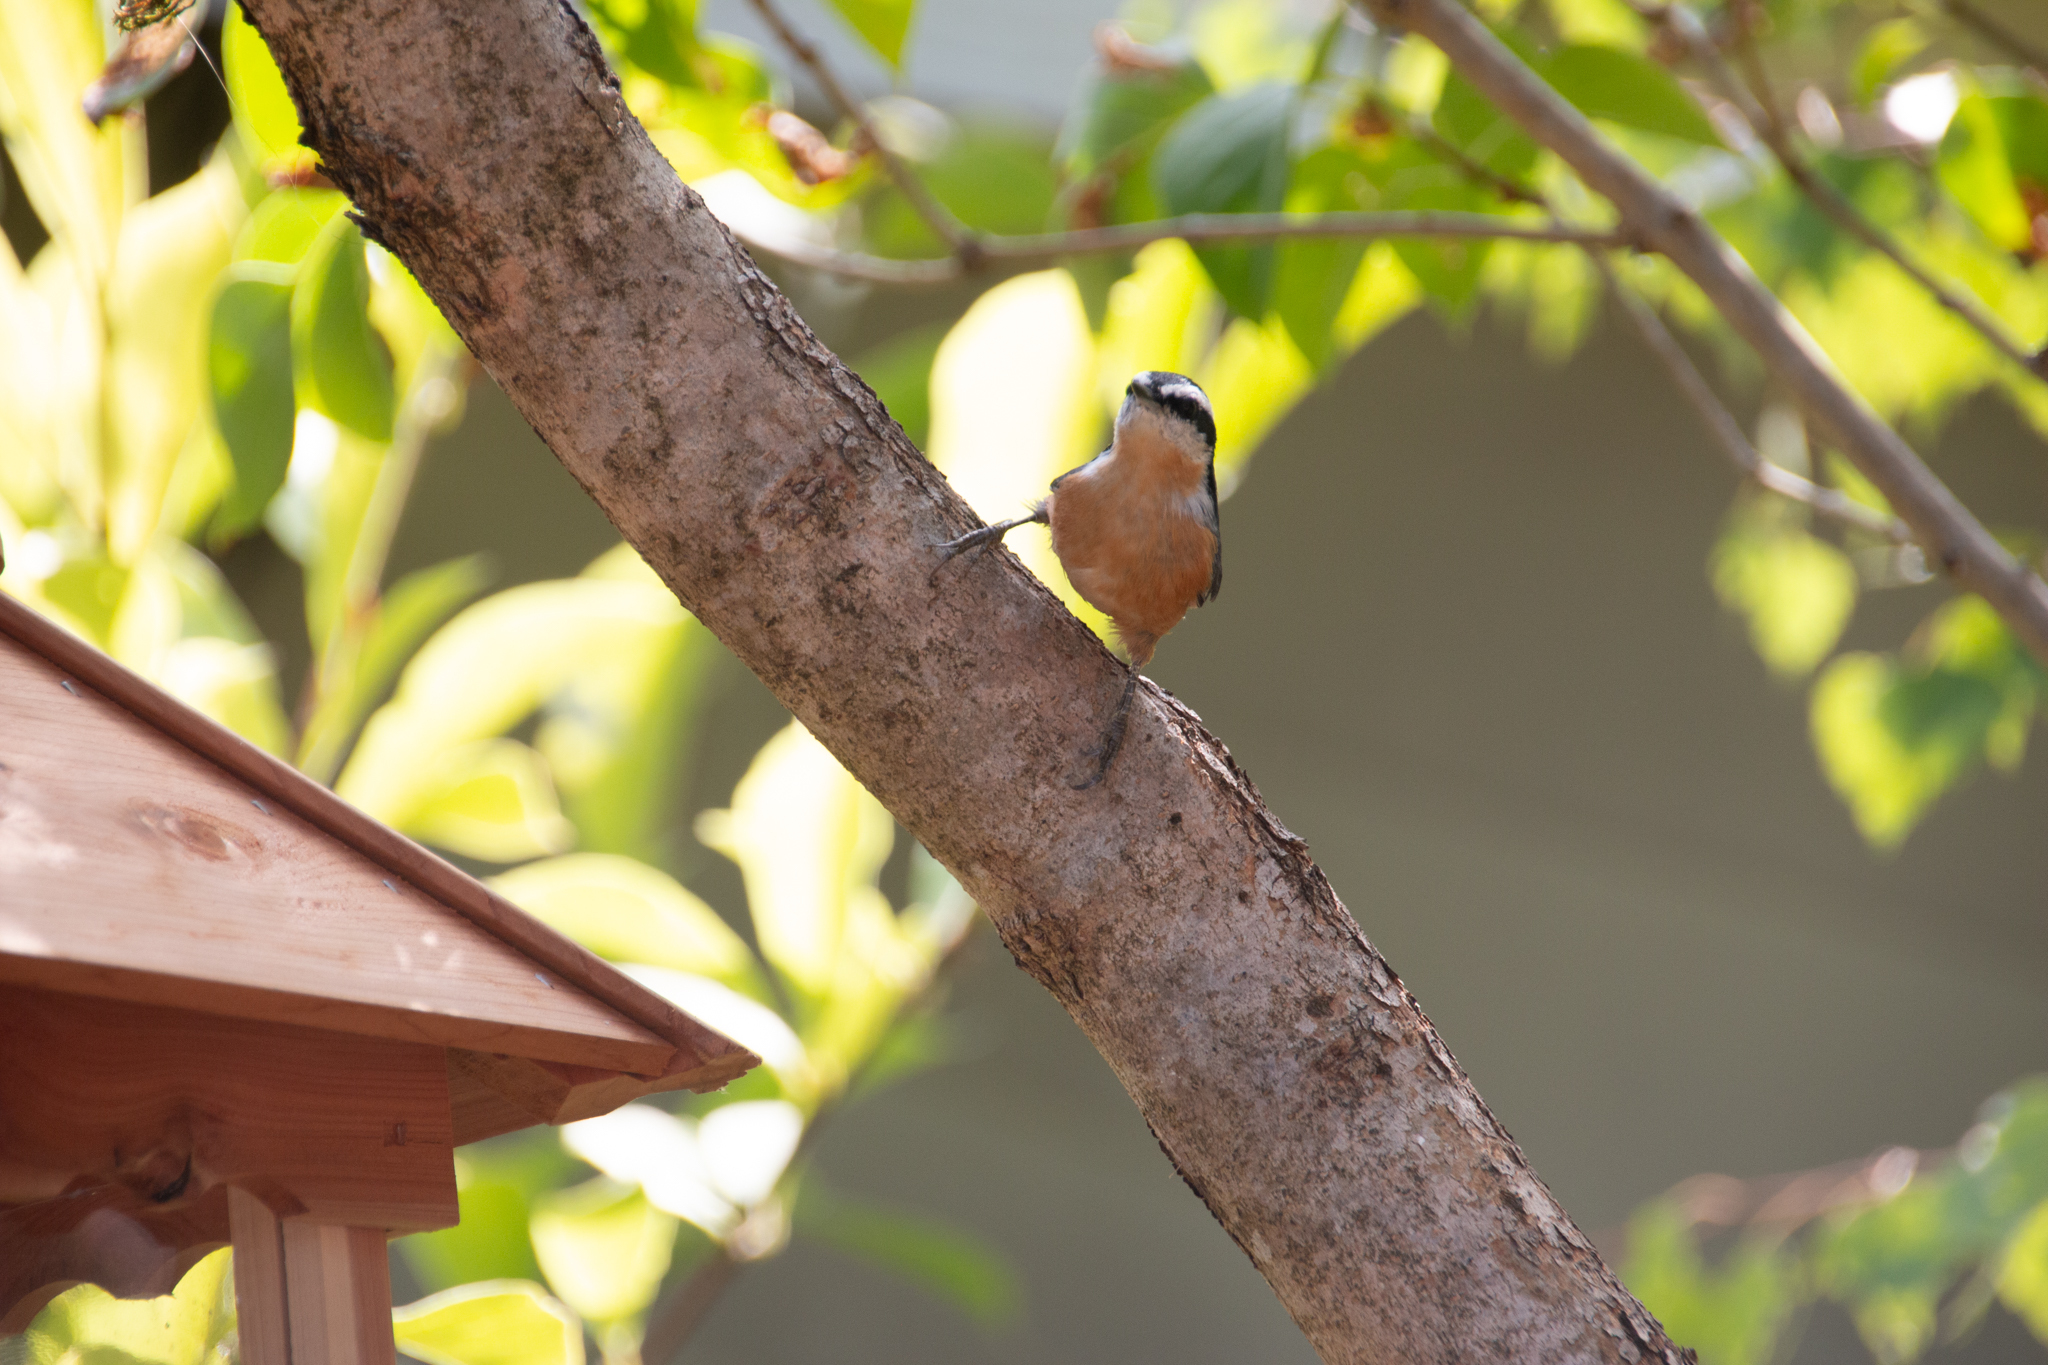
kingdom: Animalia
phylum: Chordata
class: Aves
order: Passeriformes
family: Sittidae
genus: Sitta
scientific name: Sitta canadensis
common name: Red-breasted nuthatch
